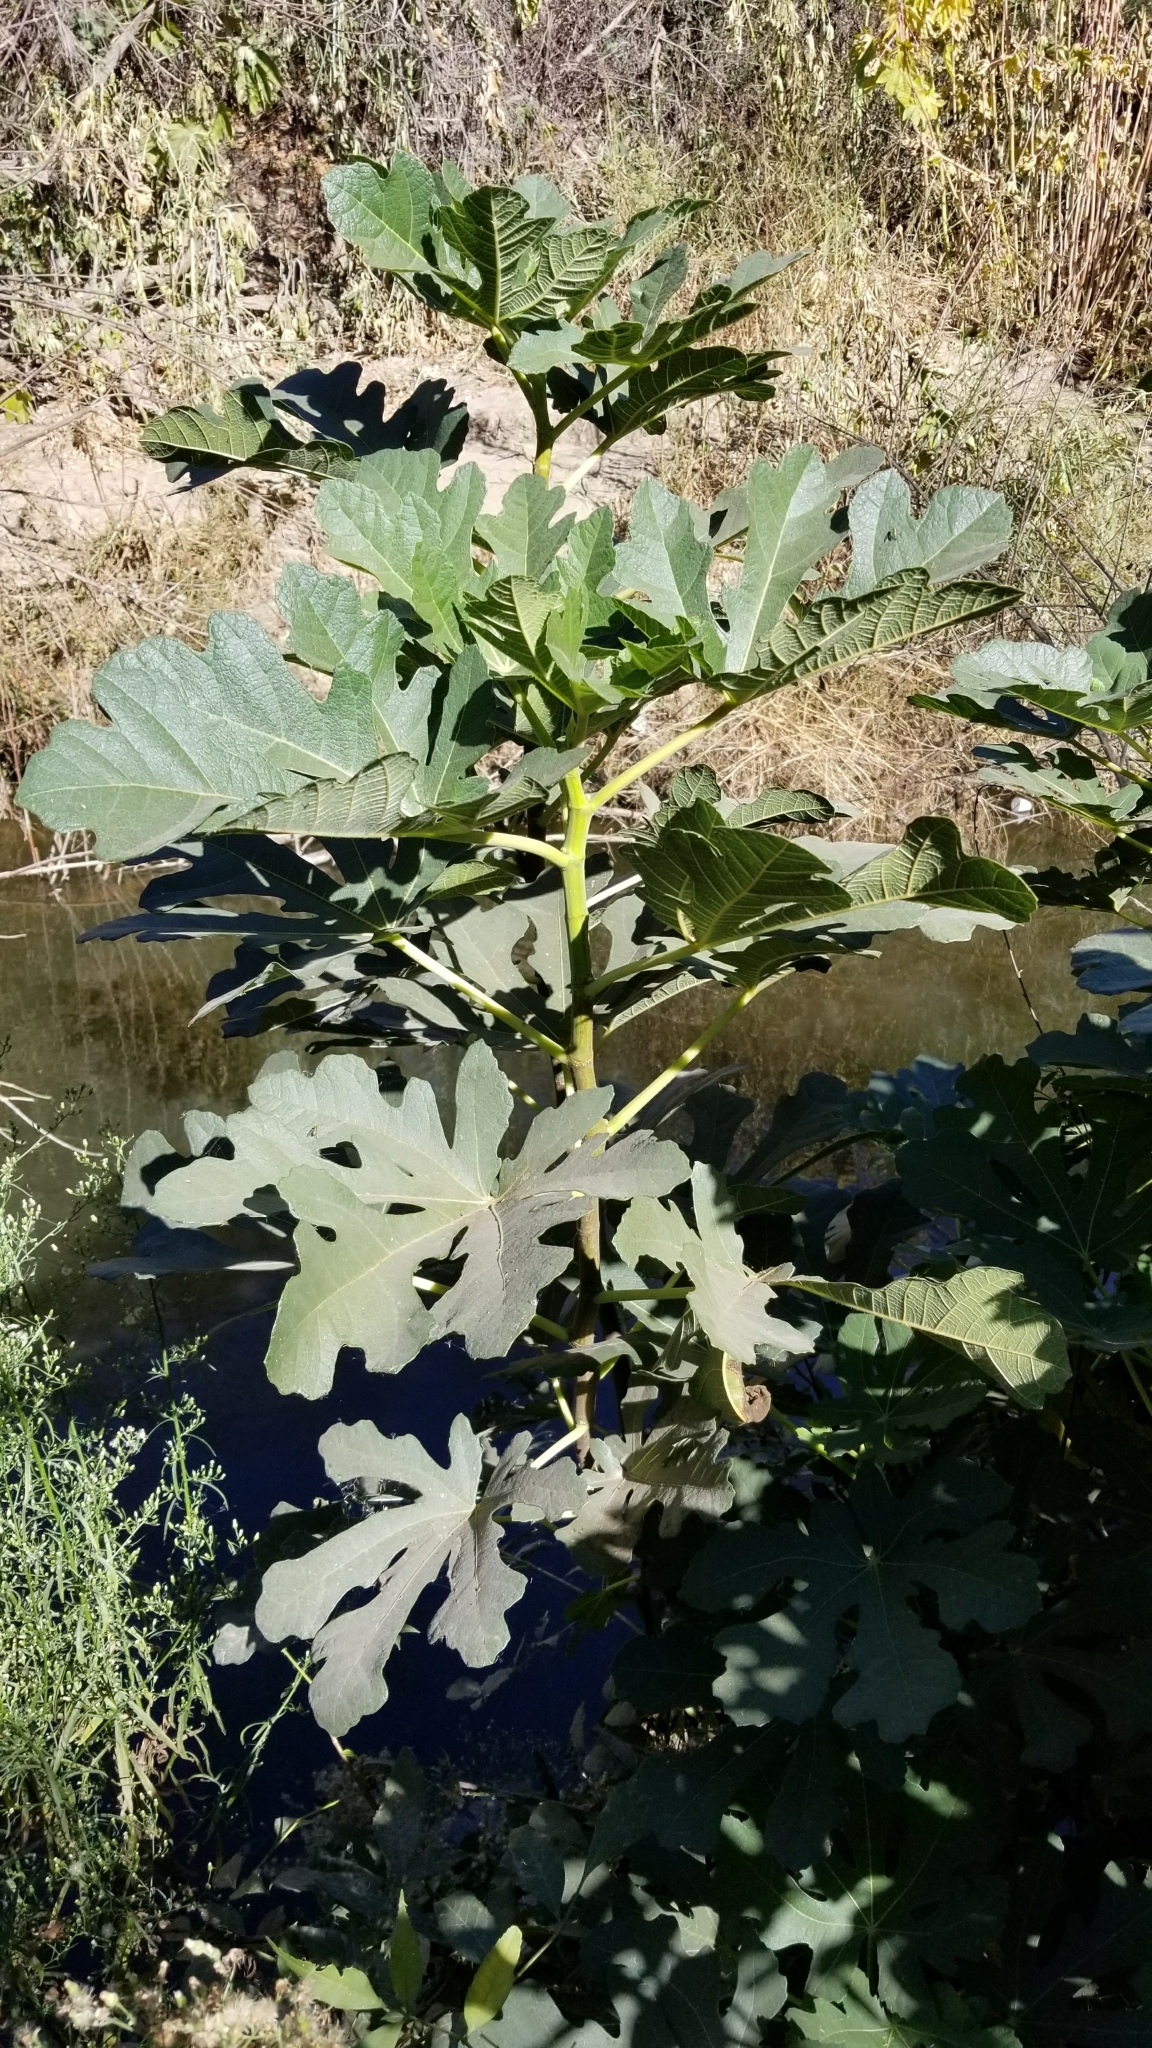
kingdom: Plantae
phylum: Tracheophyta
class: Magnoliopsida
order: Rosales
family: Moraceae
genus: Ficus
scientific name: Ficus carica
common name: Fig
